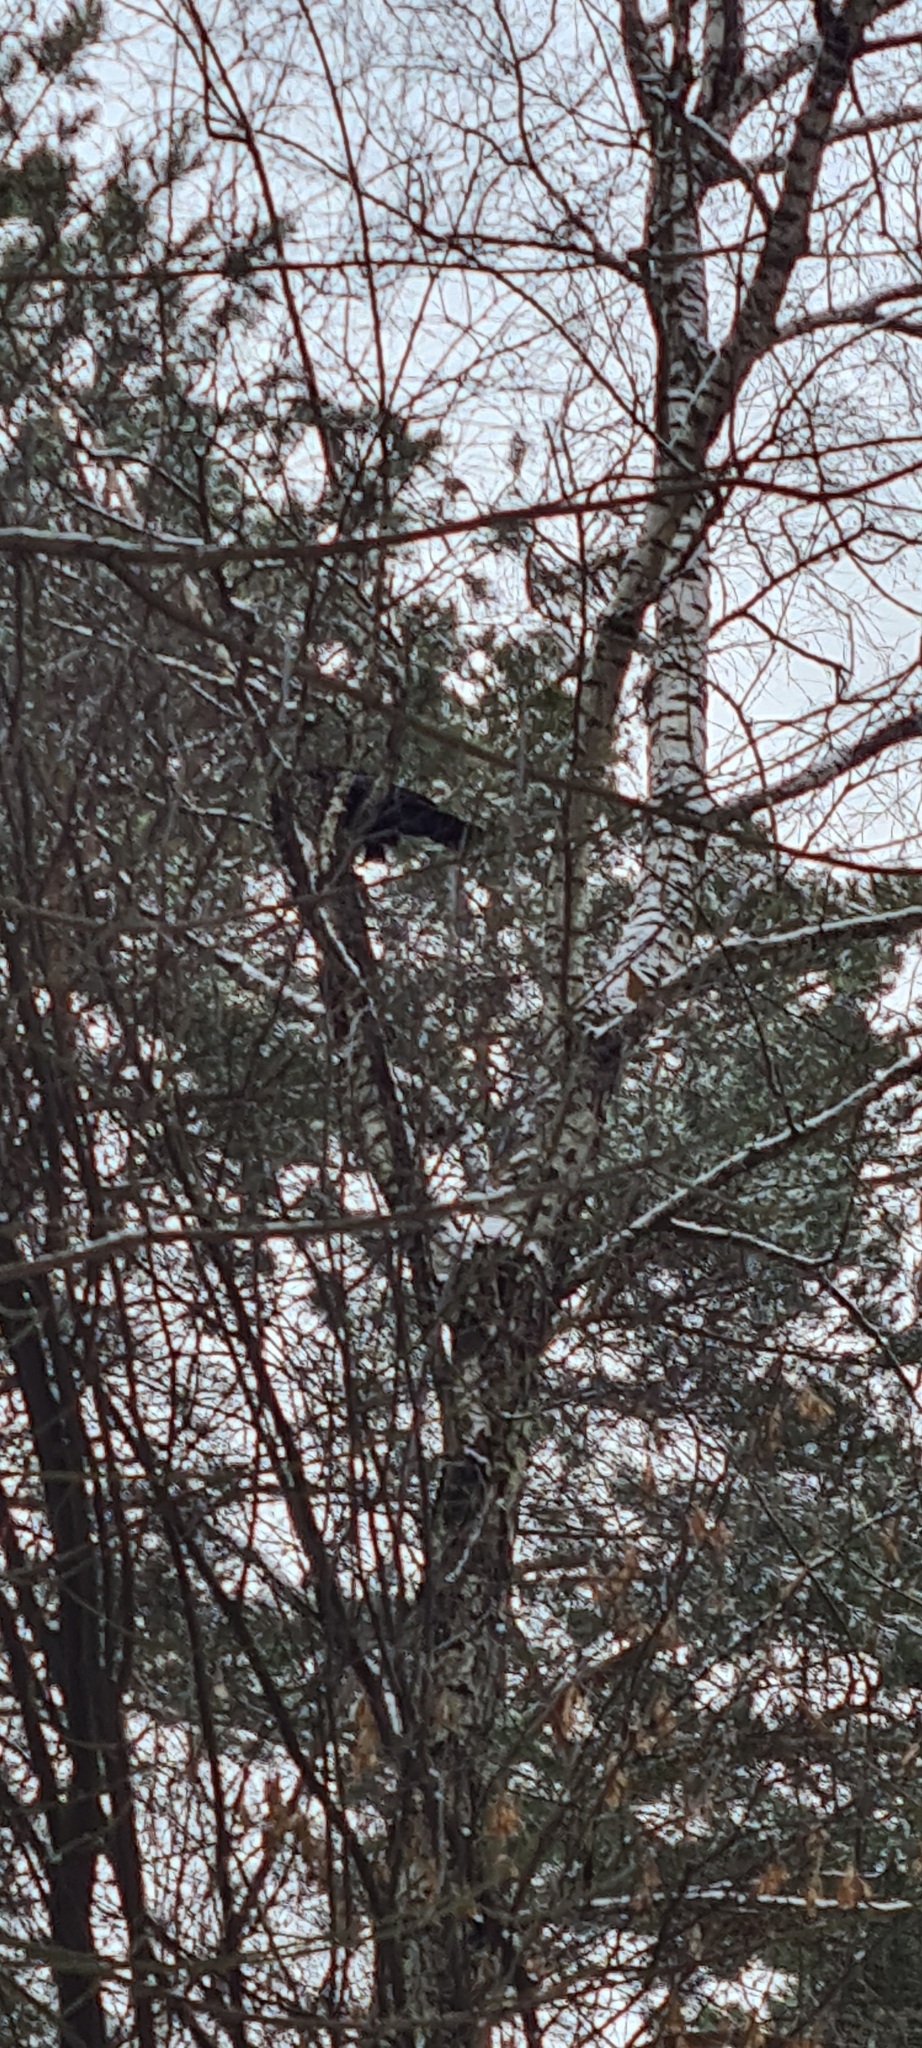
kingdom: Animalia
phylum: Chordata
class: Aves
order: Passeriformes
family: Corvidae
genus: Corvus
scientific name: Corvus corax
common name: Common raven
